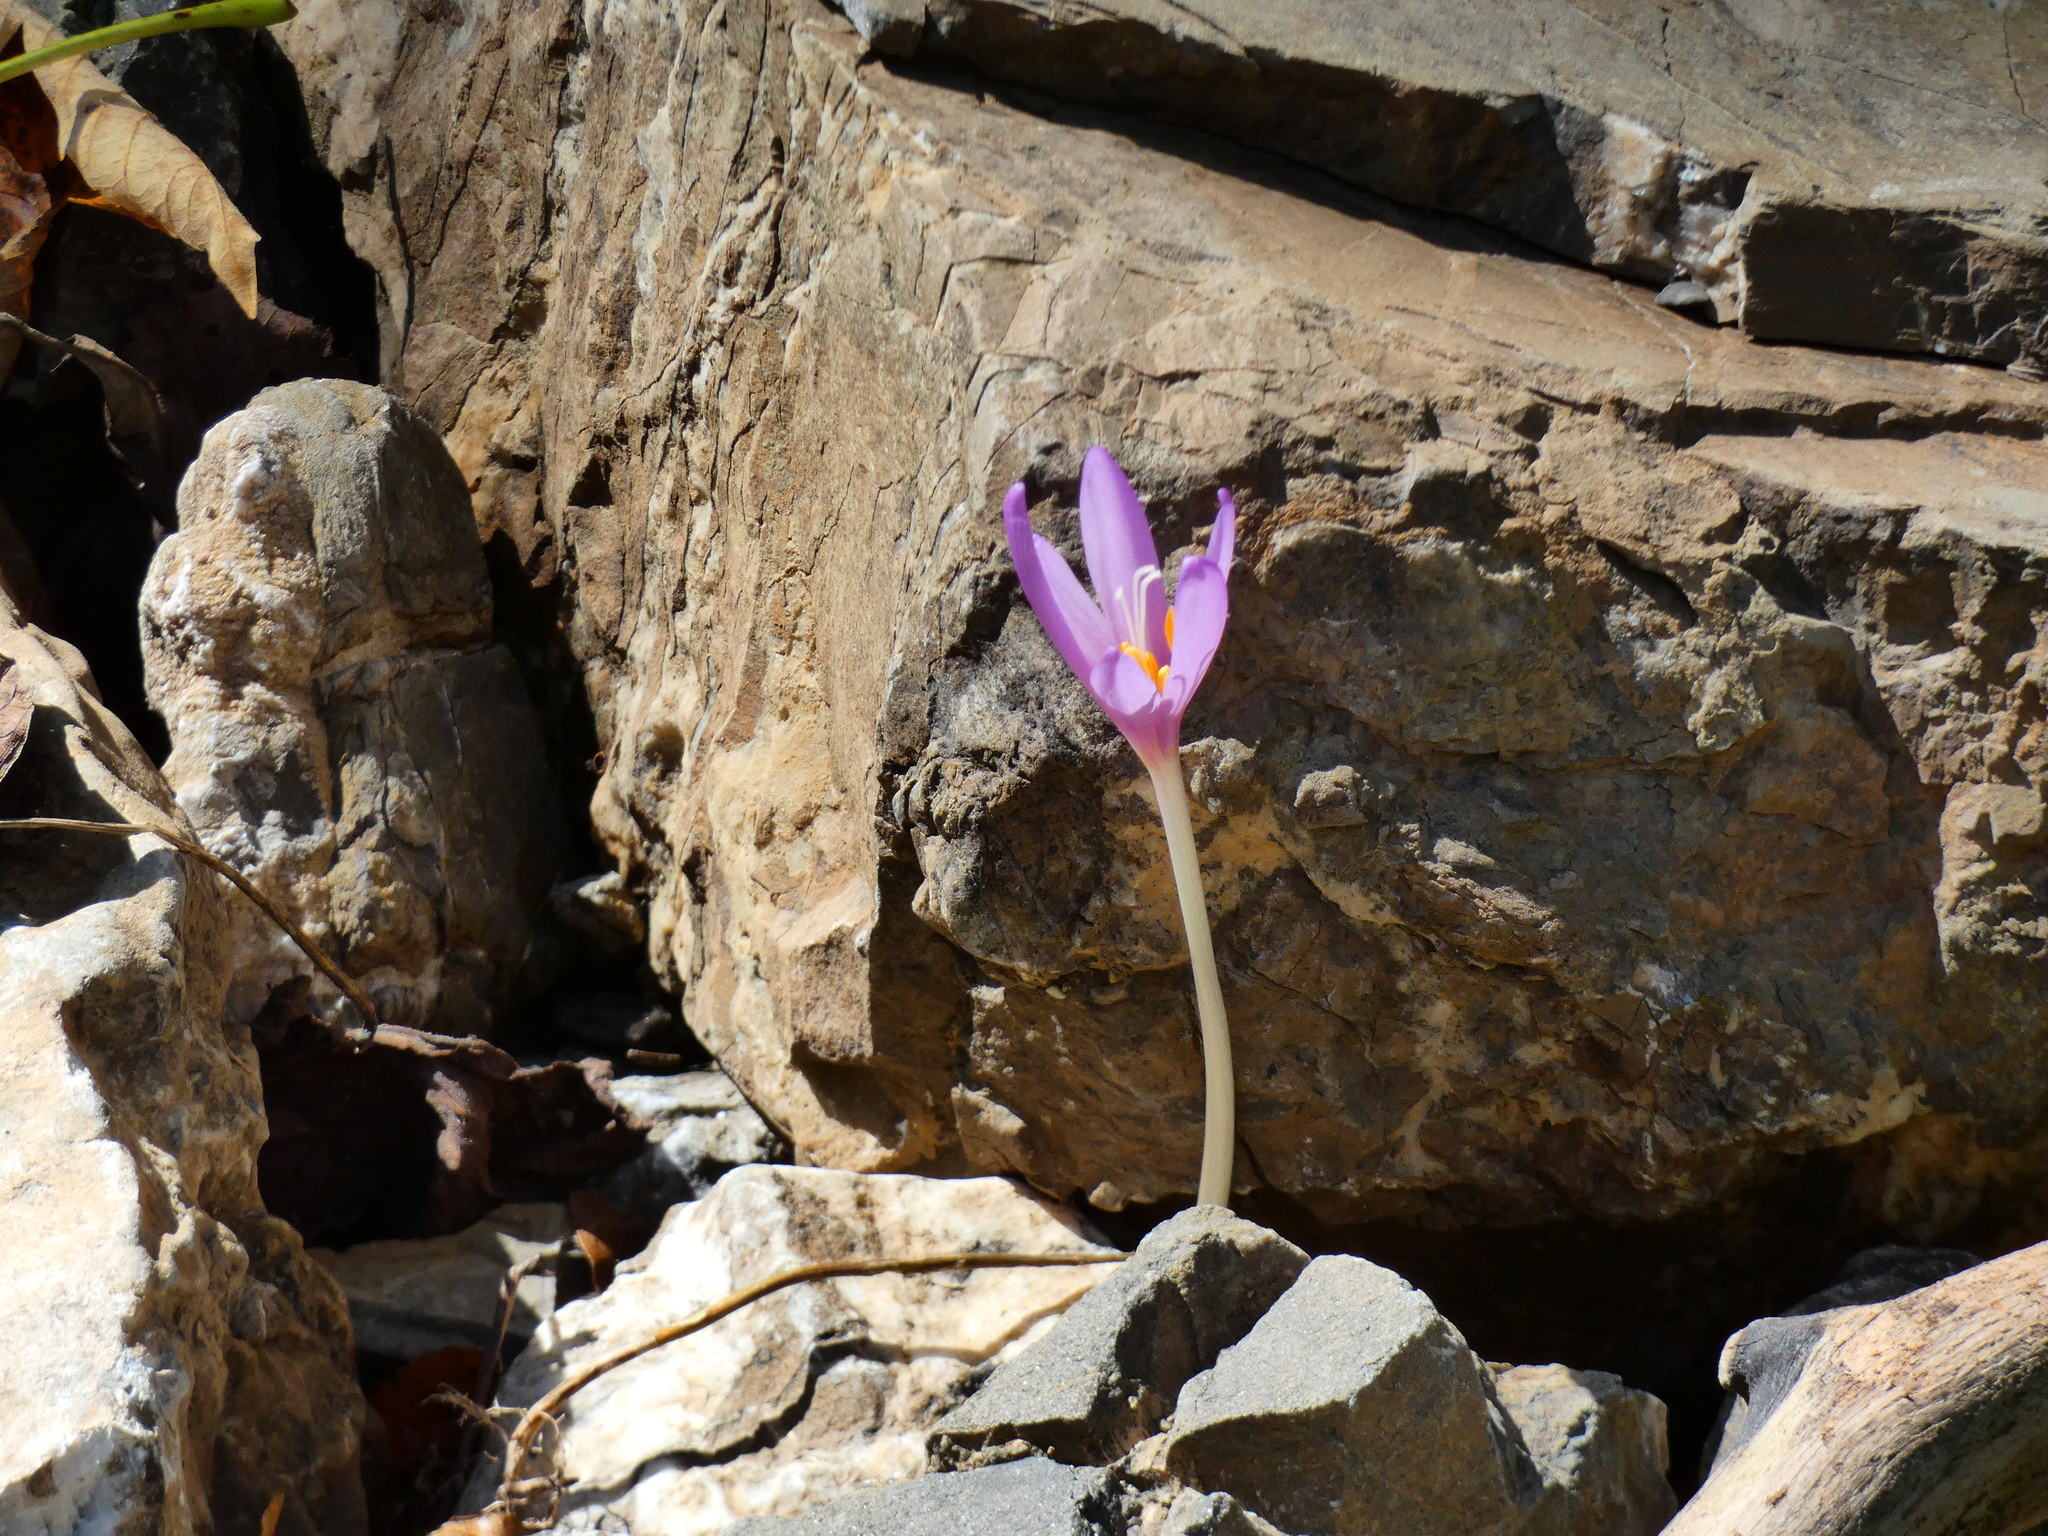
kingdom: Plantae
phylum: Tracheophyta
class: Liliopsida
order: Liliales
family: Colchicaceae
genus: Colchicum
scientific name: Colchicum autumnale
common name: Autumn crocus
